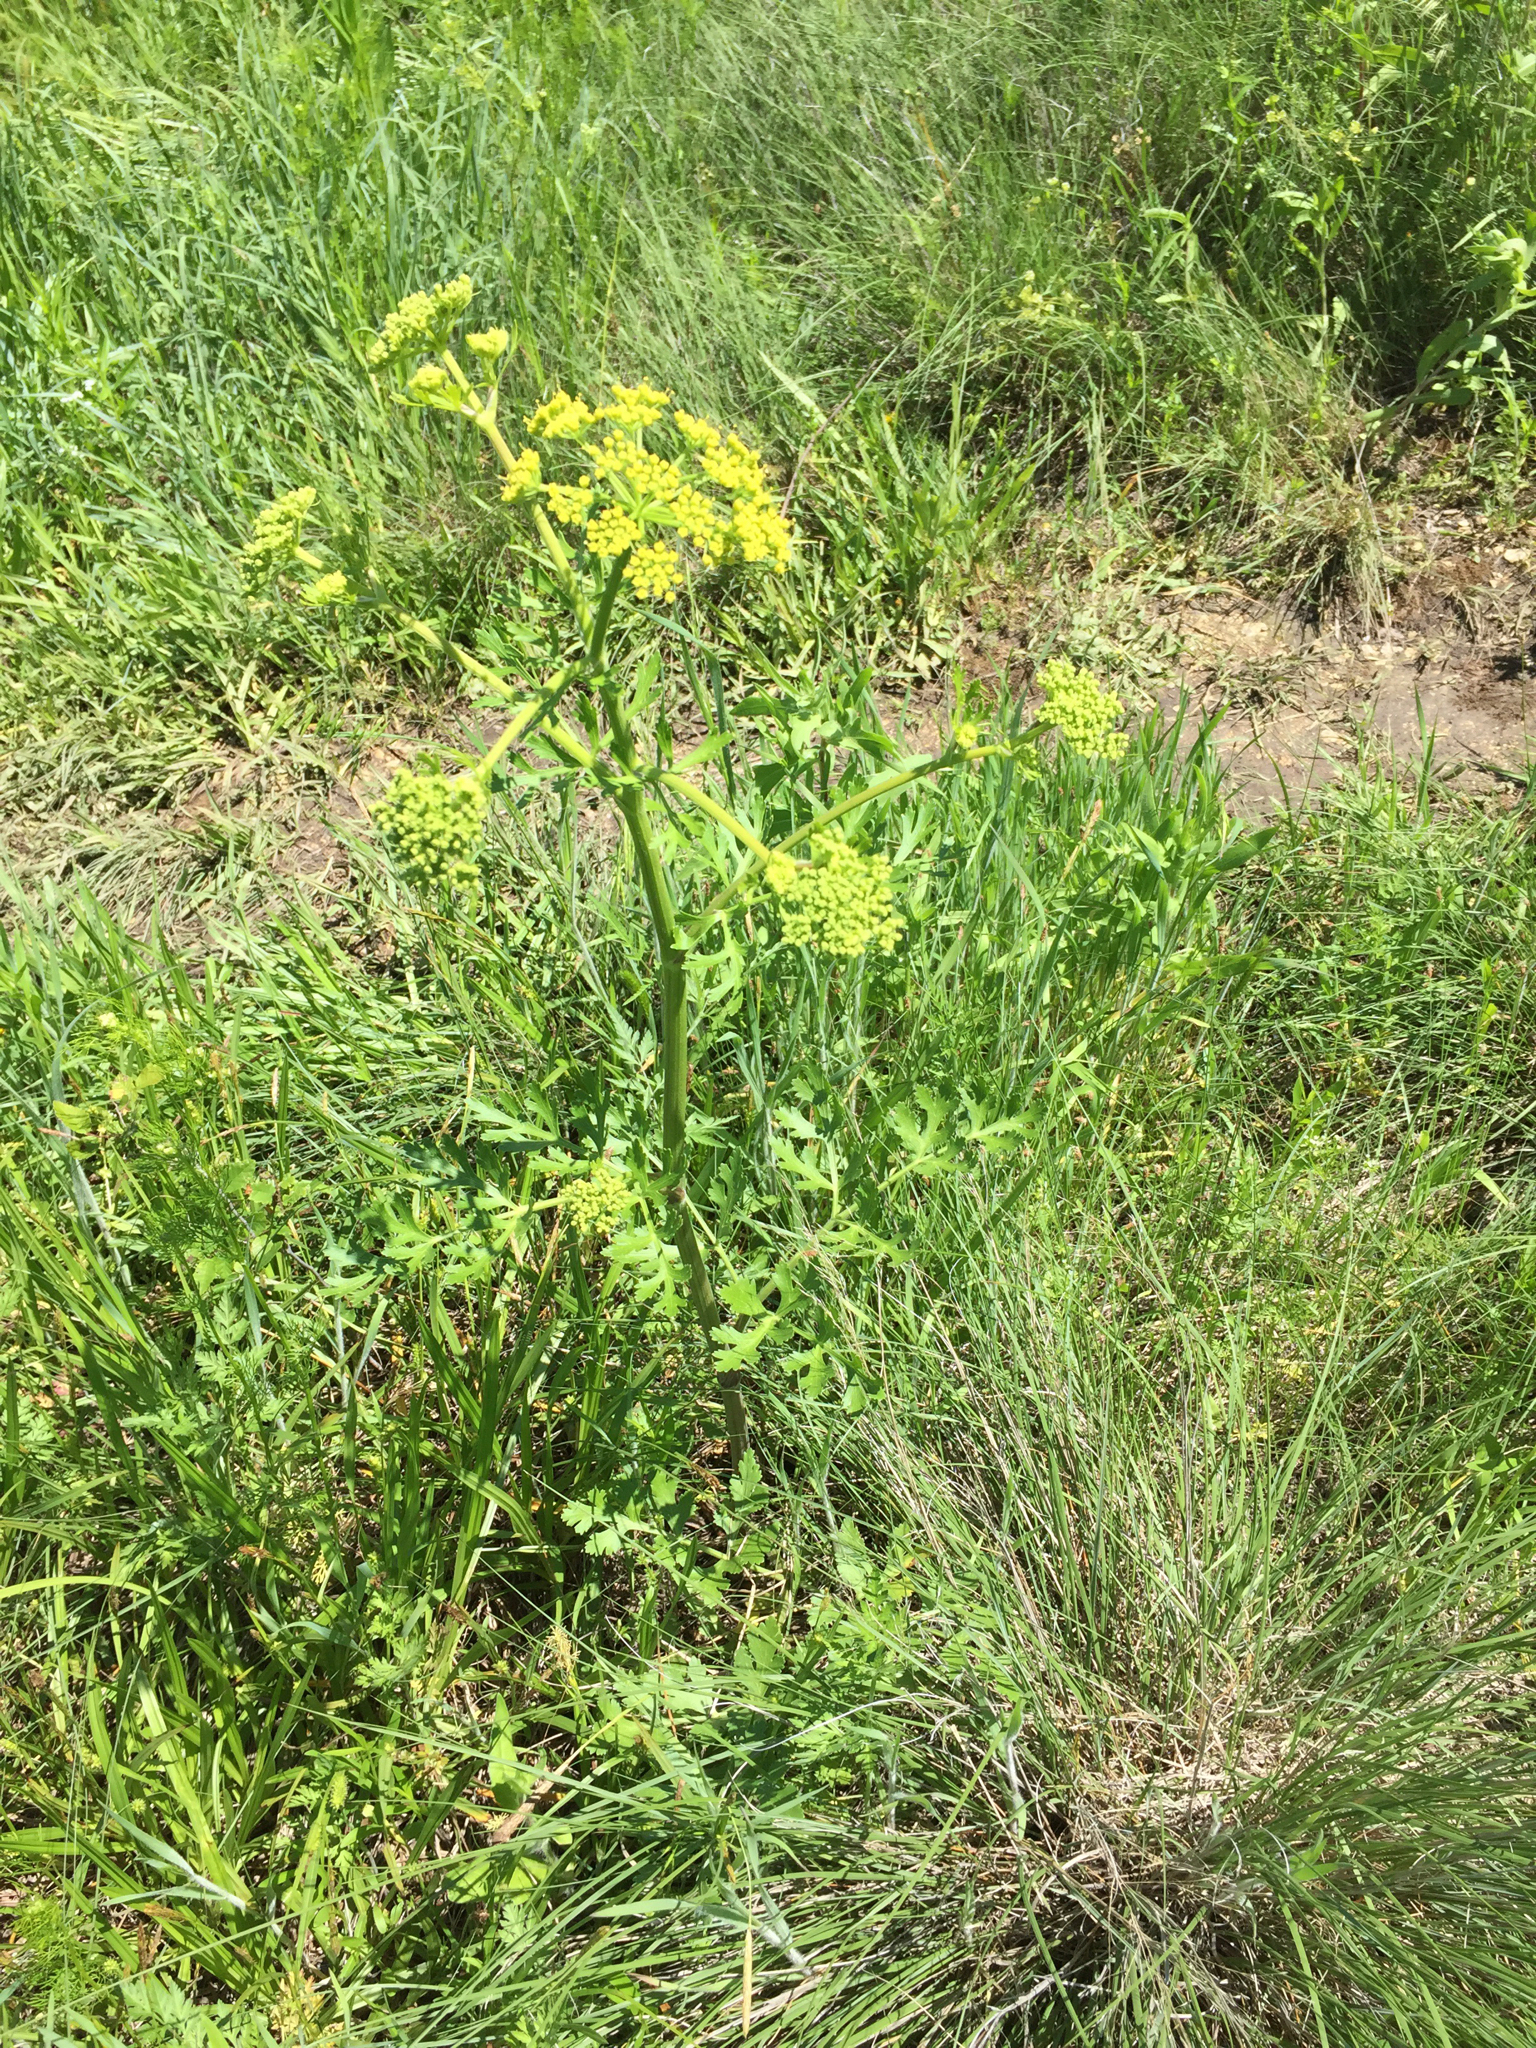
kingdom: Plantae
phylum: Tracheophyta
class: Magnoliopsida
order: Apiales
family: Apiaceae
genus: Polytaenia
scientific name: Polytaenia texana
